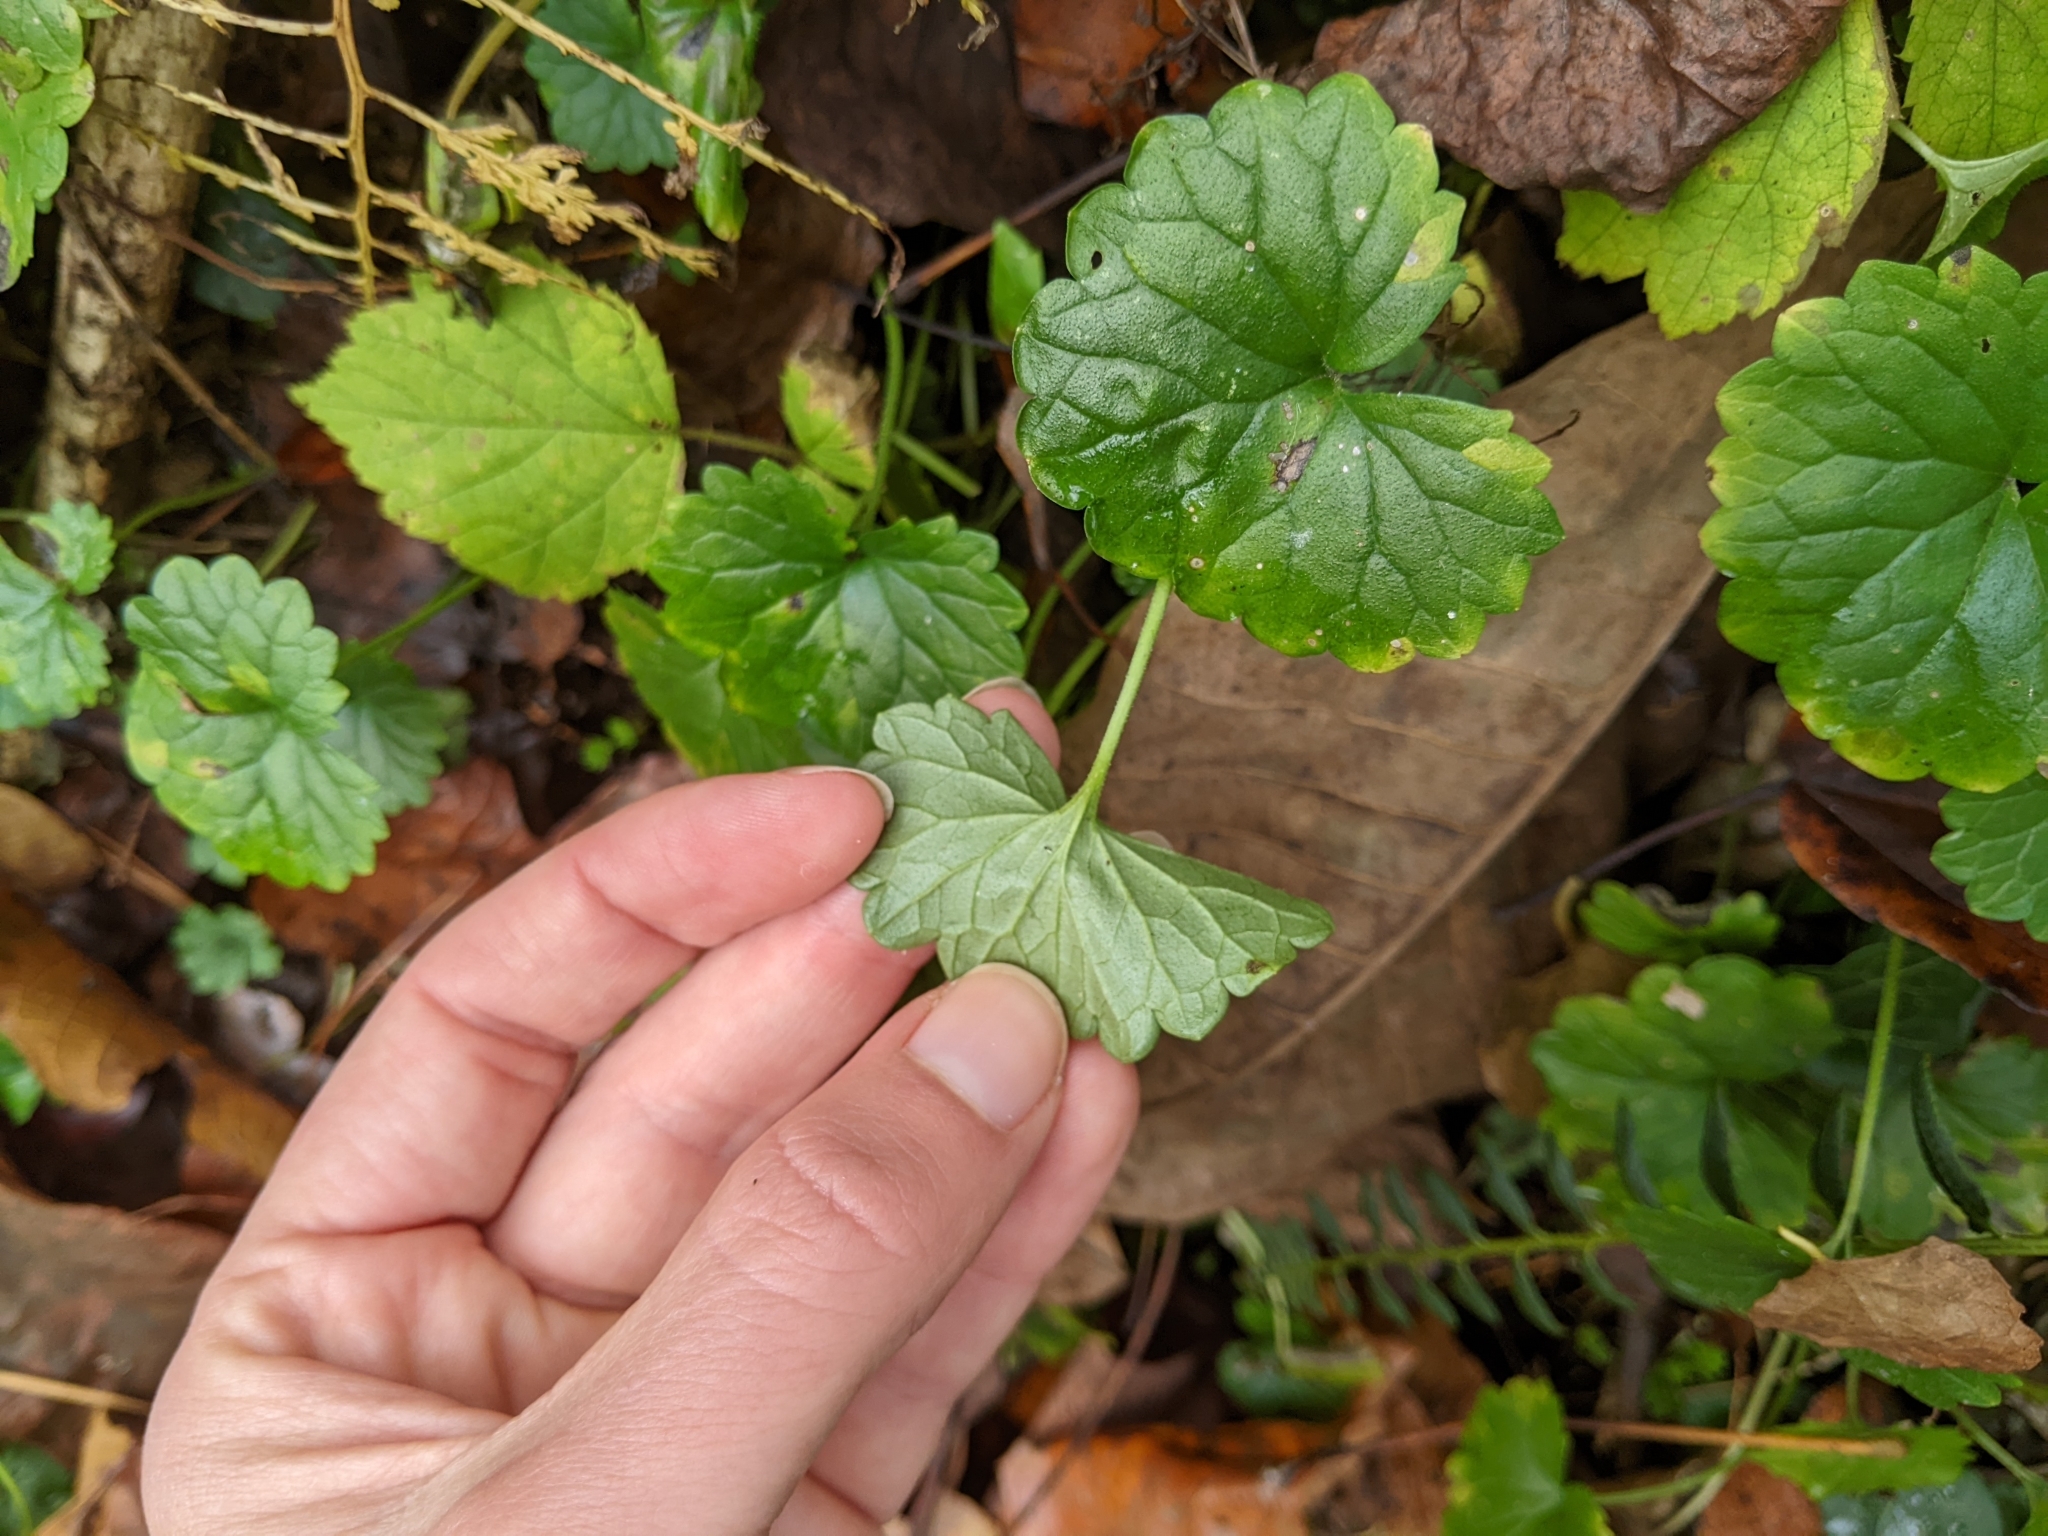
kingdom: Plantae
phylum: Tracheophyta
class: Magnoliopsida
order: Lamiales
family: Lamiaceae
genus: Glechoma
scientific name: Glechoma hederacea
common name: Ground ivy
